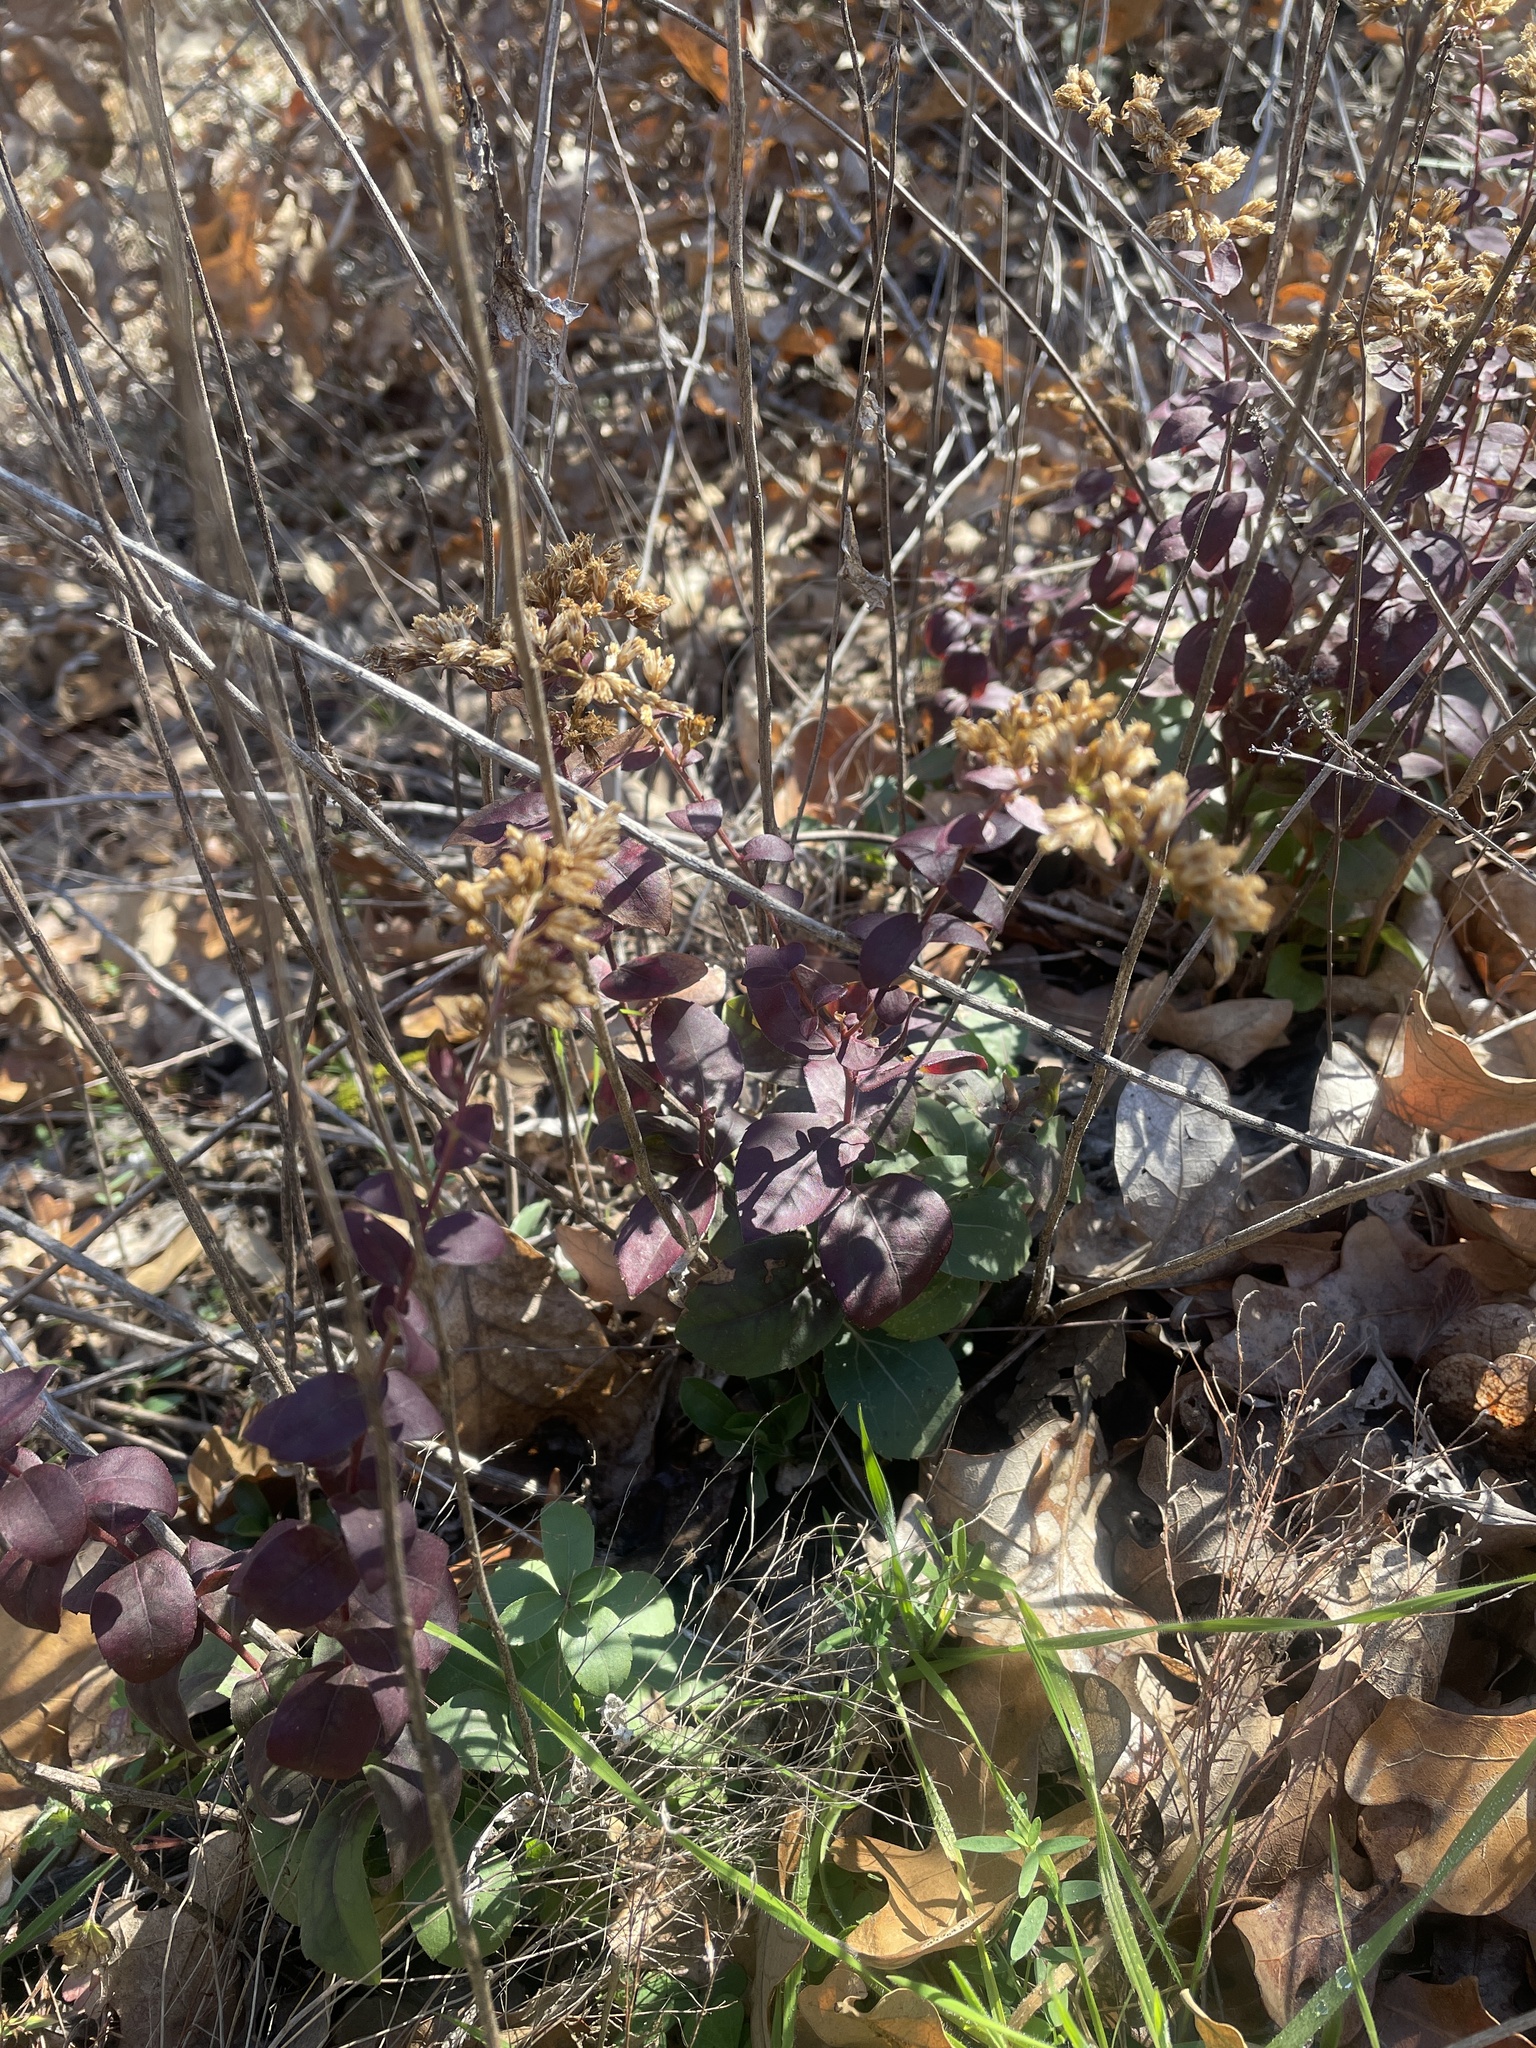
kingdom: Plantae
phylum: Tracheophyta
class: Magnoliopsida
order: Asterales
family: Asteraceae
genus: Solidago
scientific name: Solidago radula
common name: Western rough goldenrod
